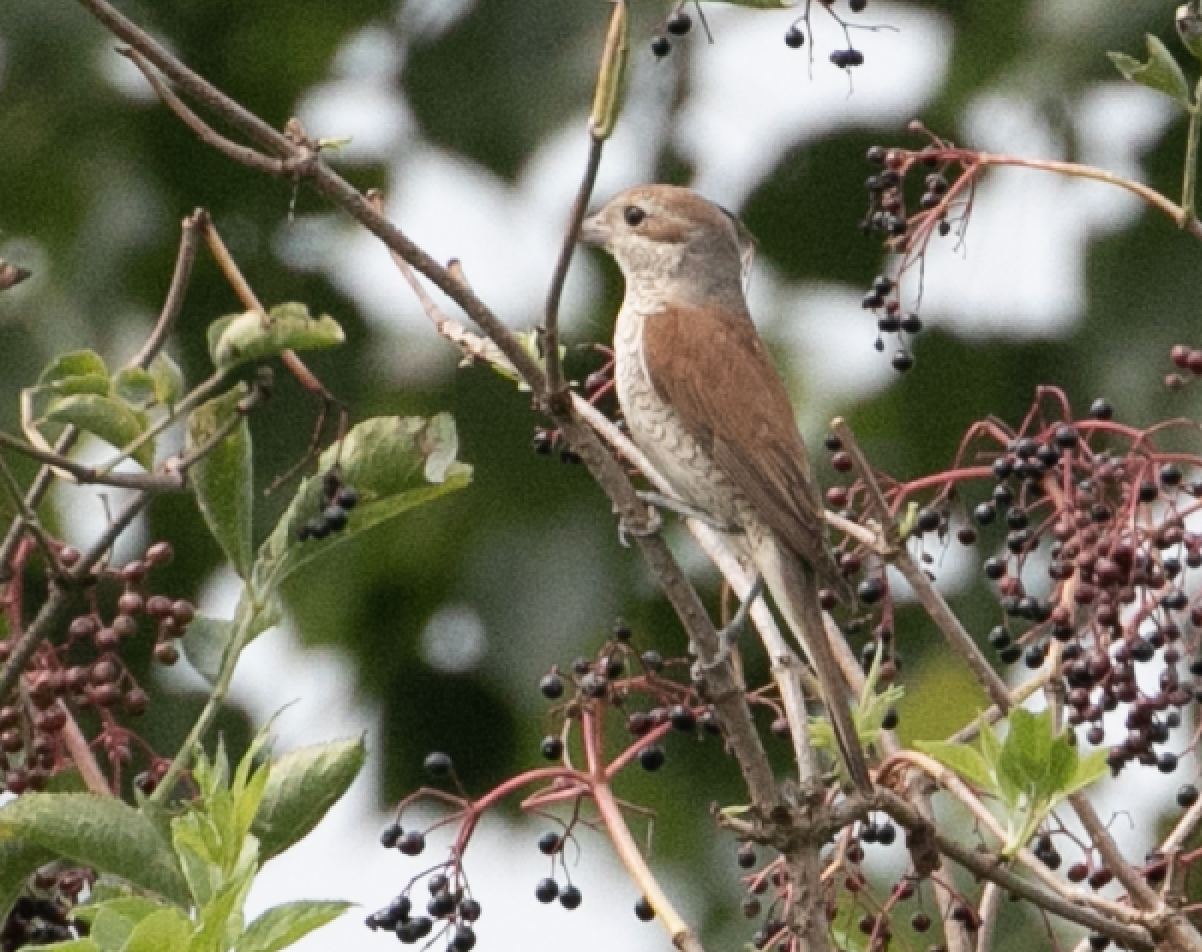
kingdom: Animalia
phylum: Chordata
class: Aves
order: Passeriformes
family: Laniidae
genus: Lanius
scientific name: Lanius collurio
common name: Red-backed shrike
